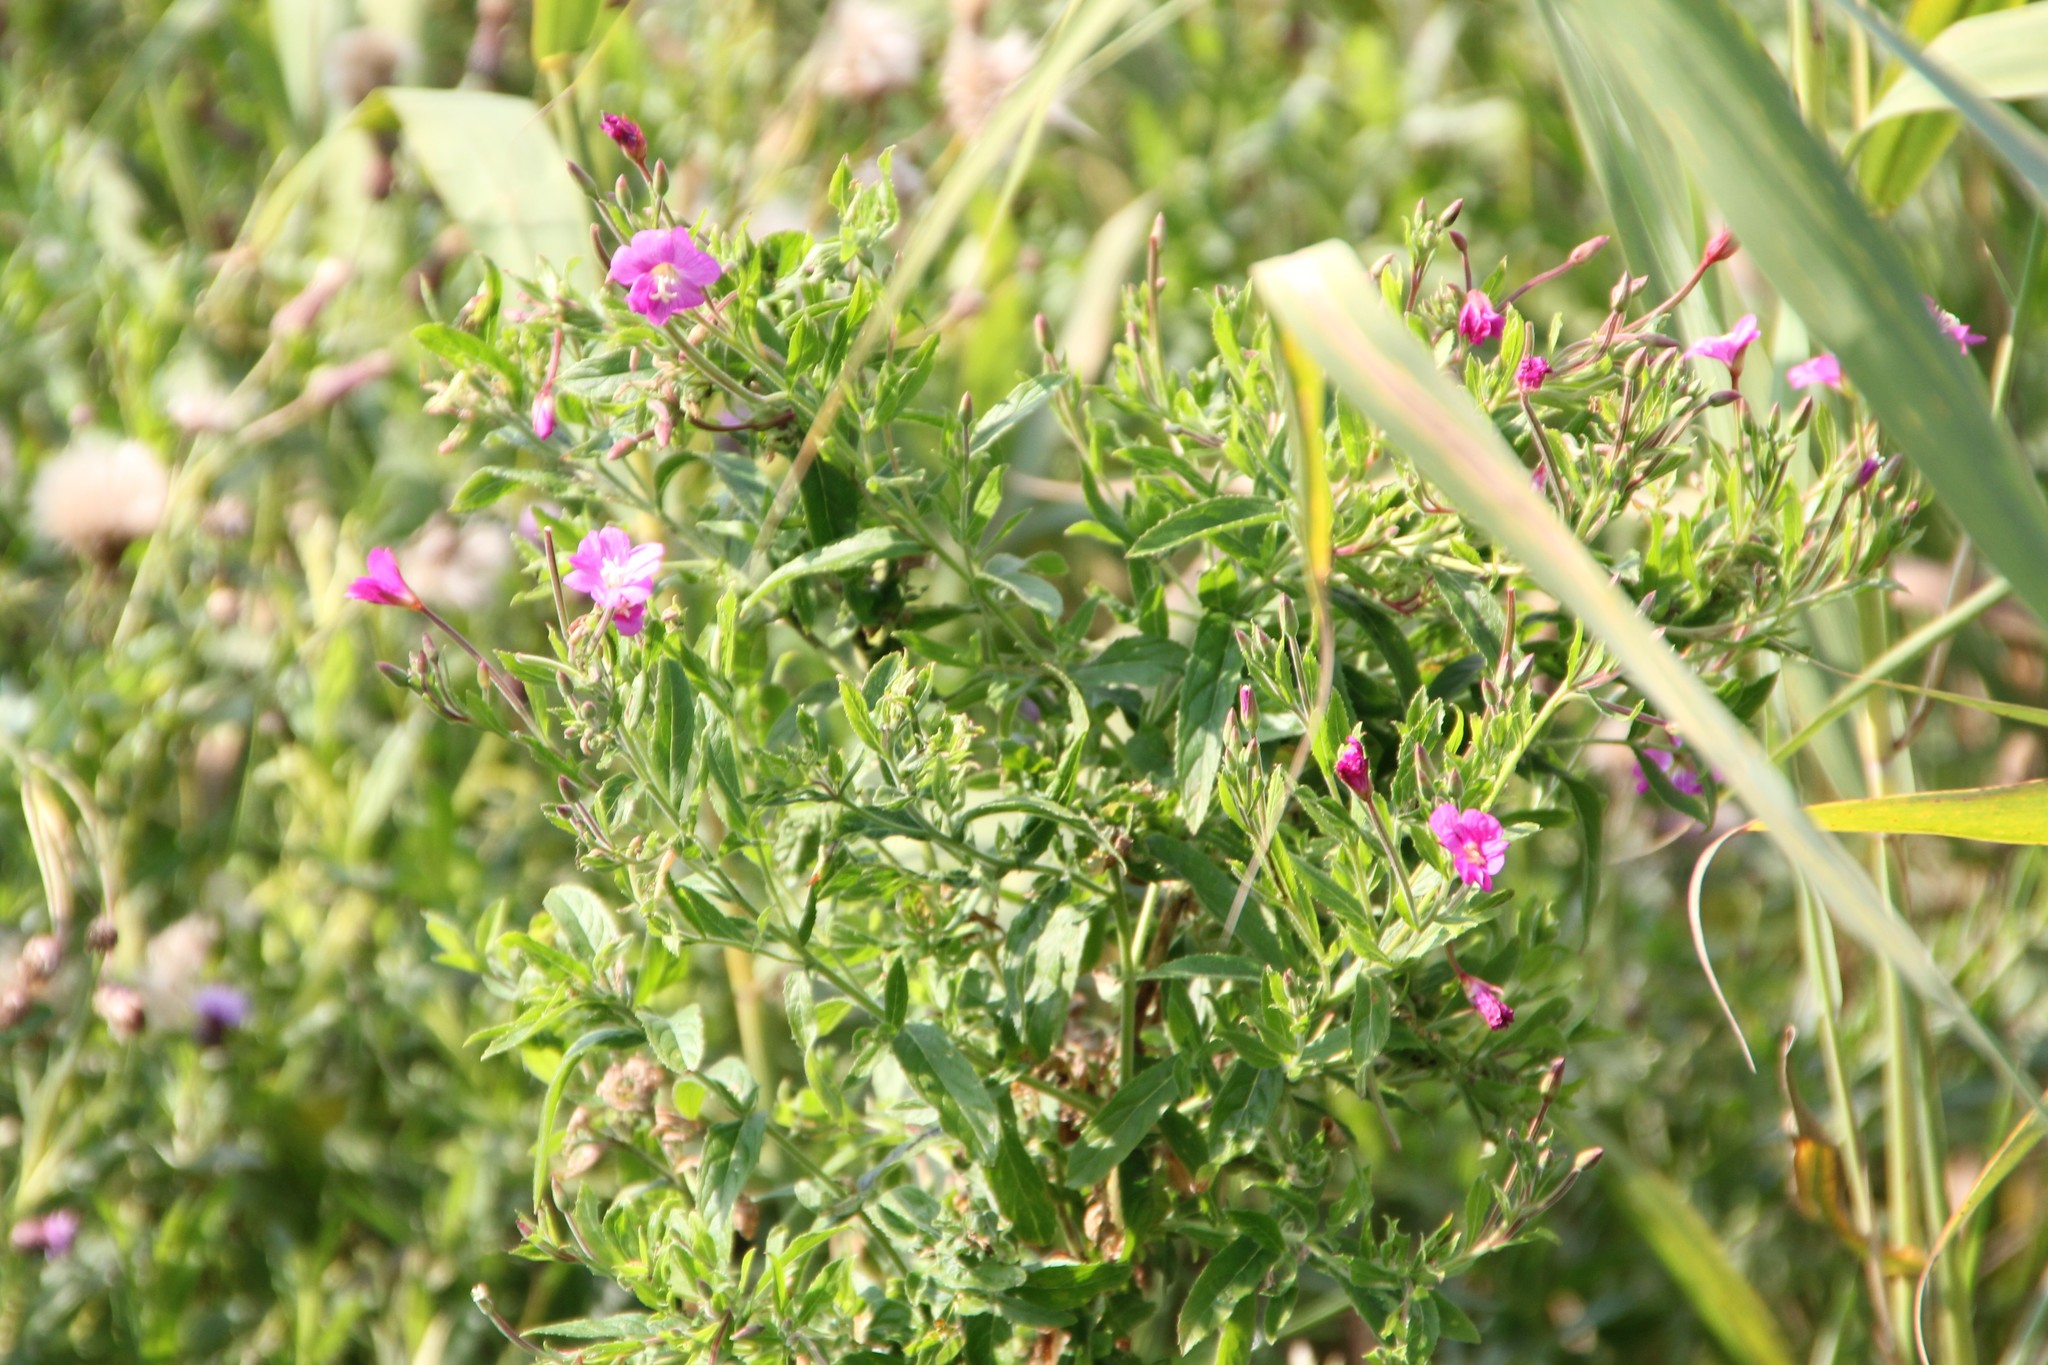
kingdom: Plantae
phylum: Tracheophyta
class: Magnoliopsida
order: Myrtales
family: Onagraceae
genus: Epilobium
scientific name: Epilobium hirsutum
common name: Great willowherb
